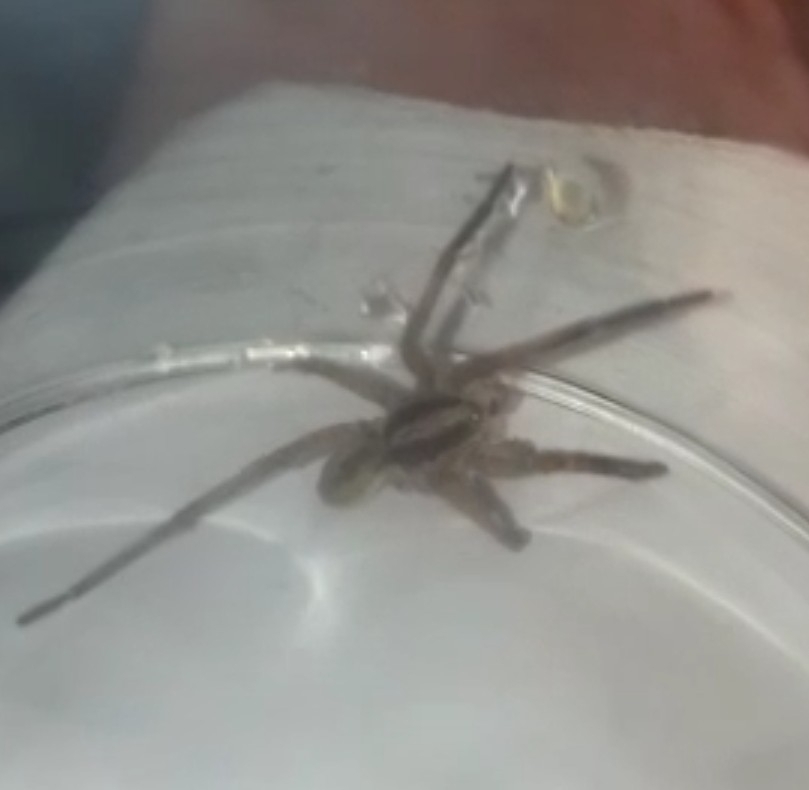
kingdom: Animalia
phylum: Arthropoda
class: Arachnida
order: Araneae
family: Lycosidae
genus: Hogna
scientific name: Hogna ferox
